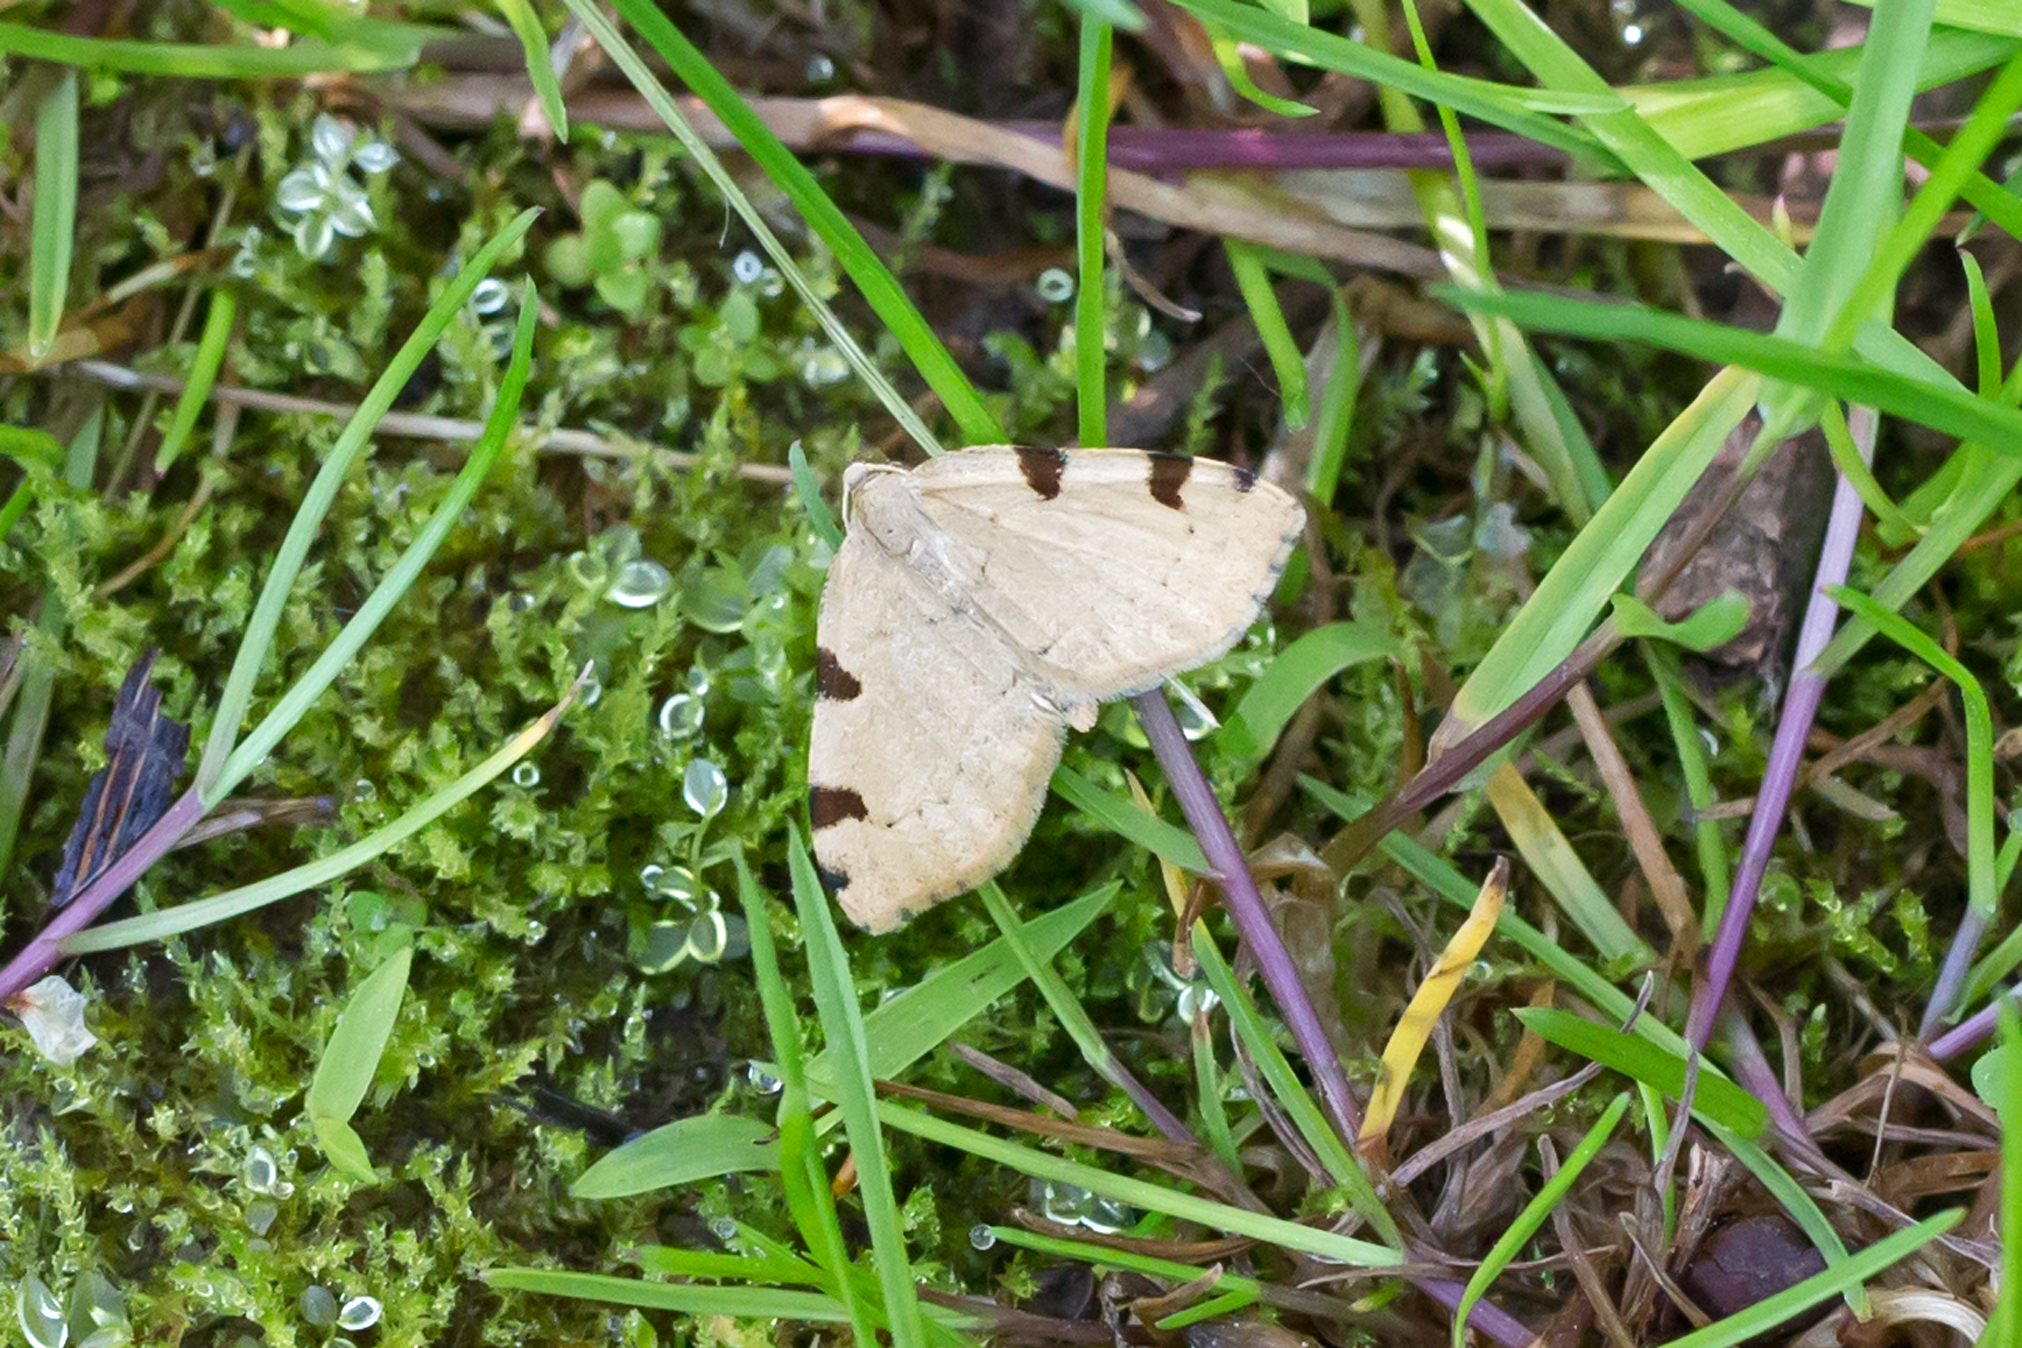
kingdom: Animalia
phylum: Arthropoda
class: Insecta
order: Lepidoptera
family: Geometridae
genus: Heterophleps
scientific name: Heterophleps triguttaria
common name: Three-spotted fillip
